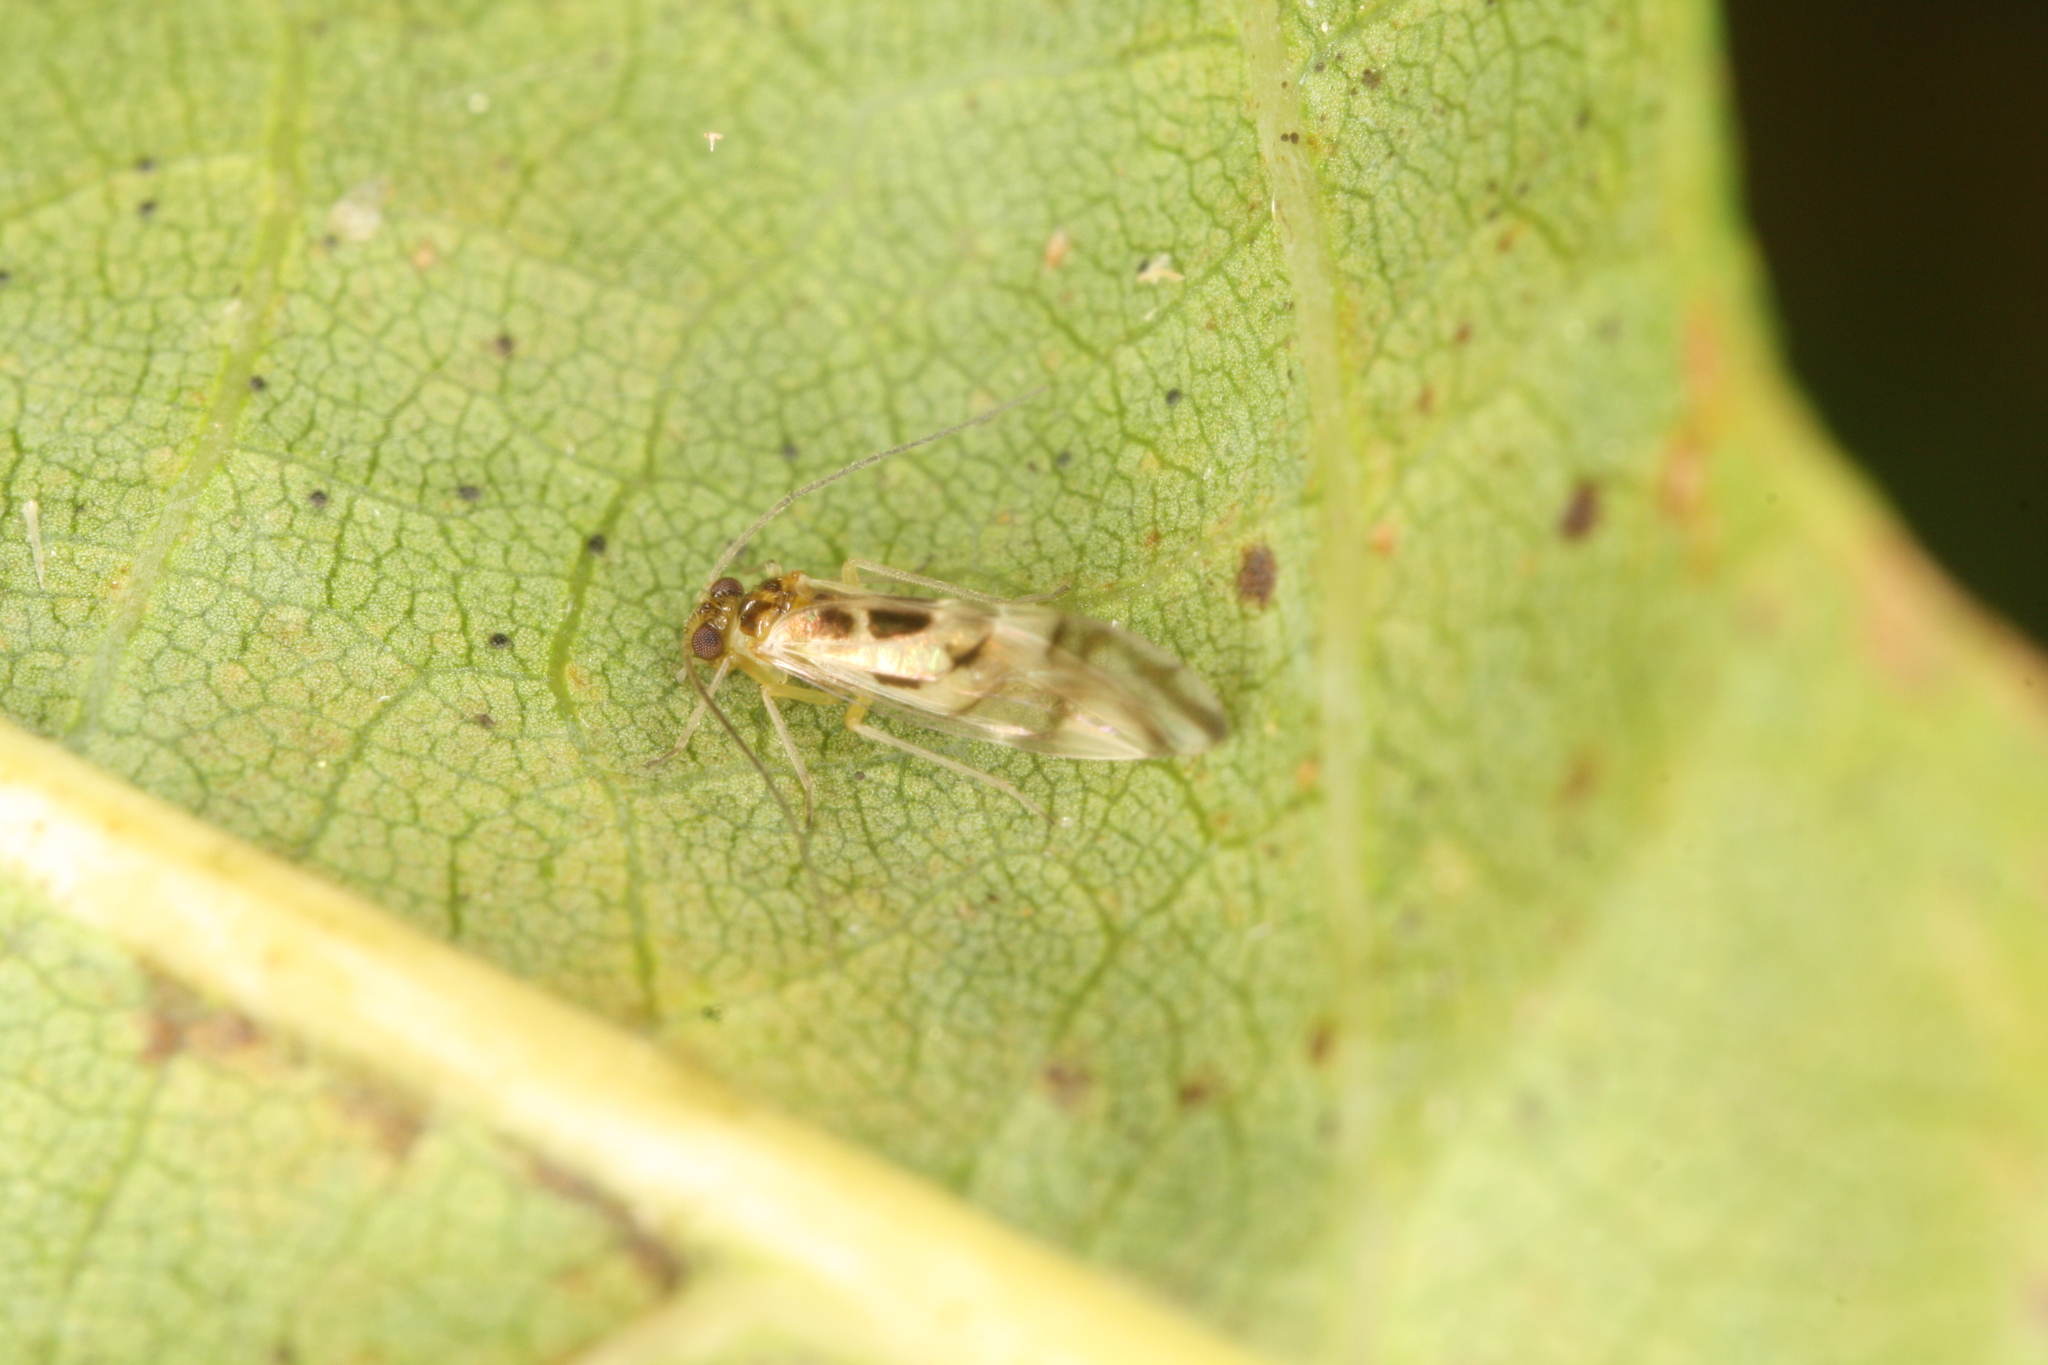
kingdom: Animalia
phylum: Arthropoda
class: Insecta
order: Psocodea
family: Stenopsocidae
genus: Graphopsocus
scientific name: Graphopsocus cruciatus
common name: Lizard bark louse
